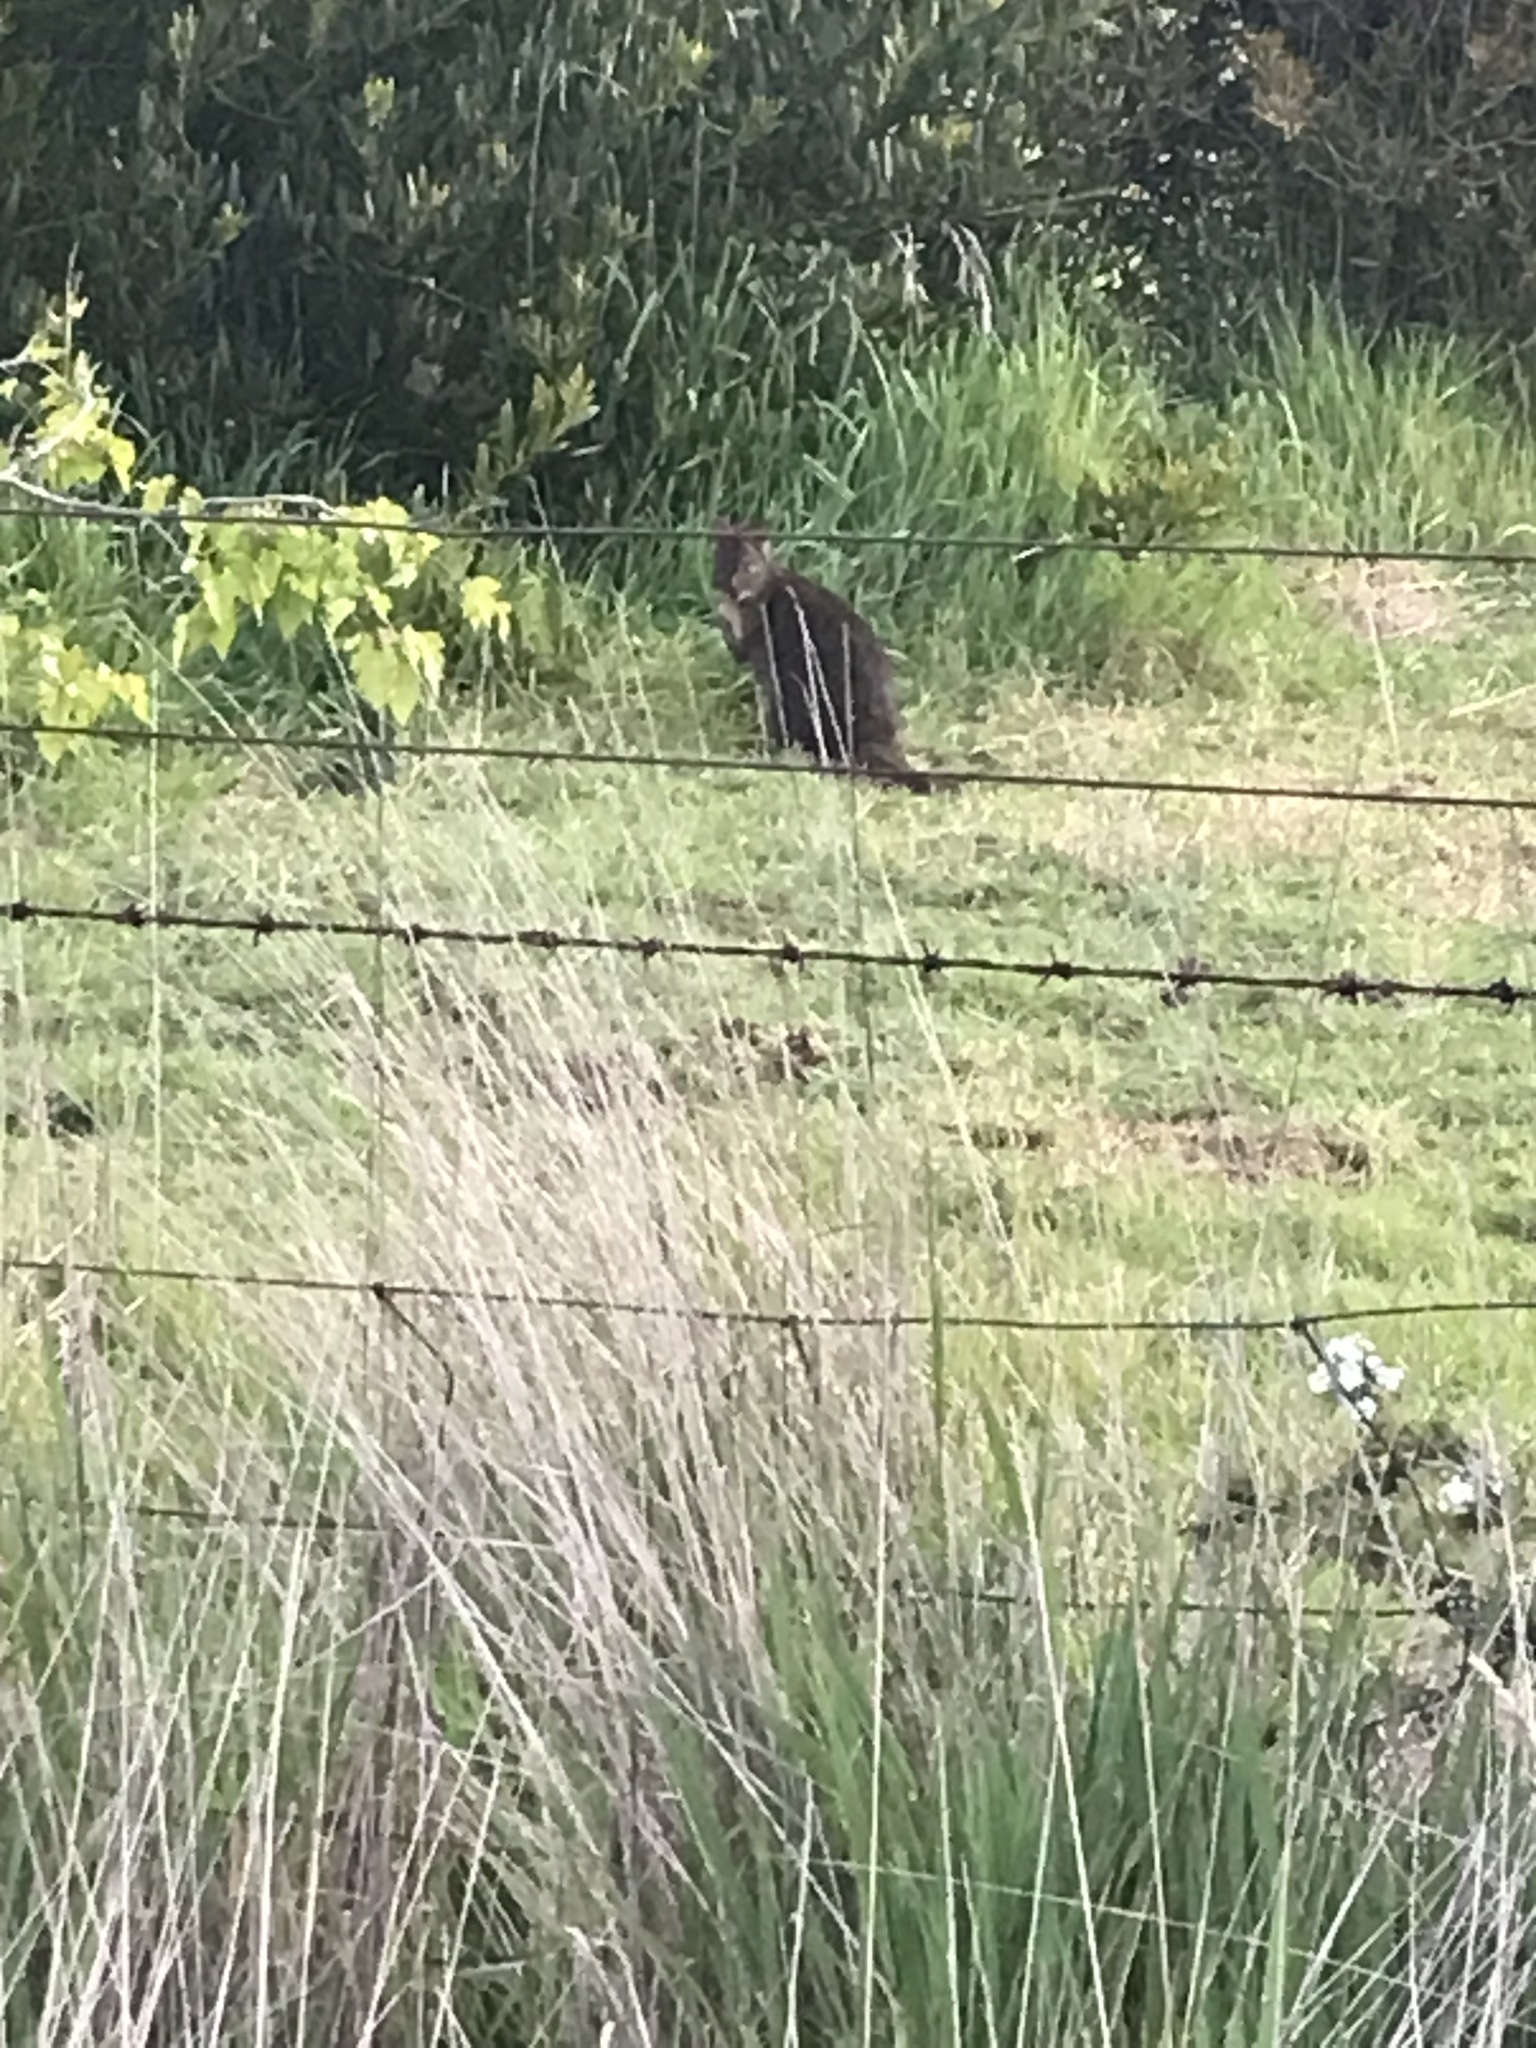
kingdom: Animalia
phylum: Chordata
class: Mammalia
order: Diprotodontia
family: Macropodidae
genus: Thylogale
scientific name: Thylogale billardierii
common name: Tasmanian pademelon
